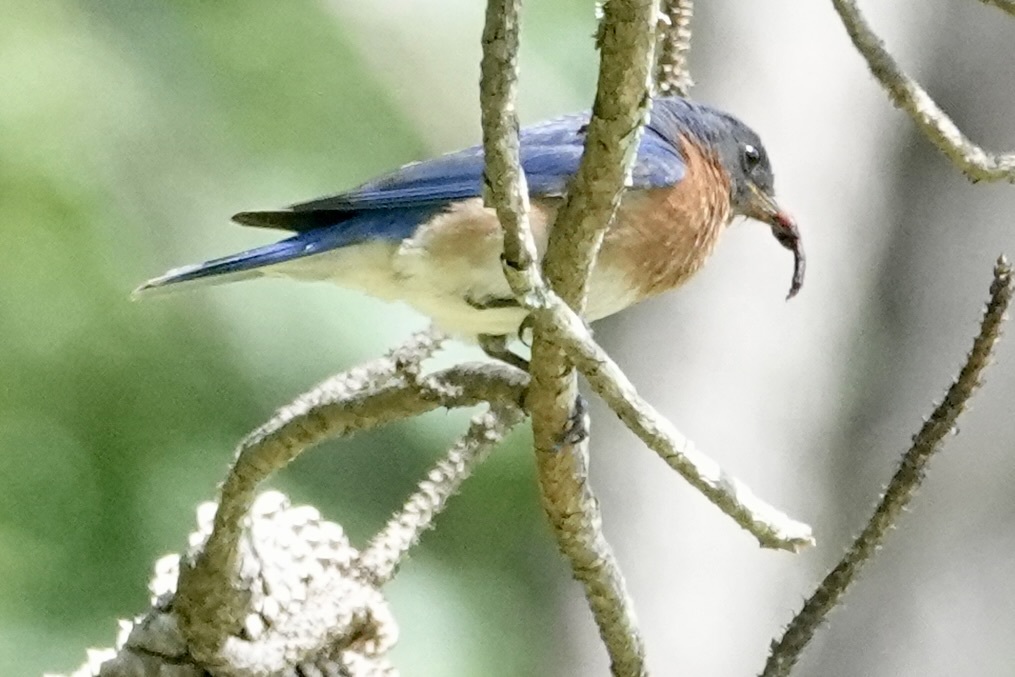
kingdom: Animalia
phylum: Chordata
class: Aves
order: Passeriformes
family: Turdidae
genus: Sialia
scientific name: Sialia sialis
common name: Eastern bluebird
